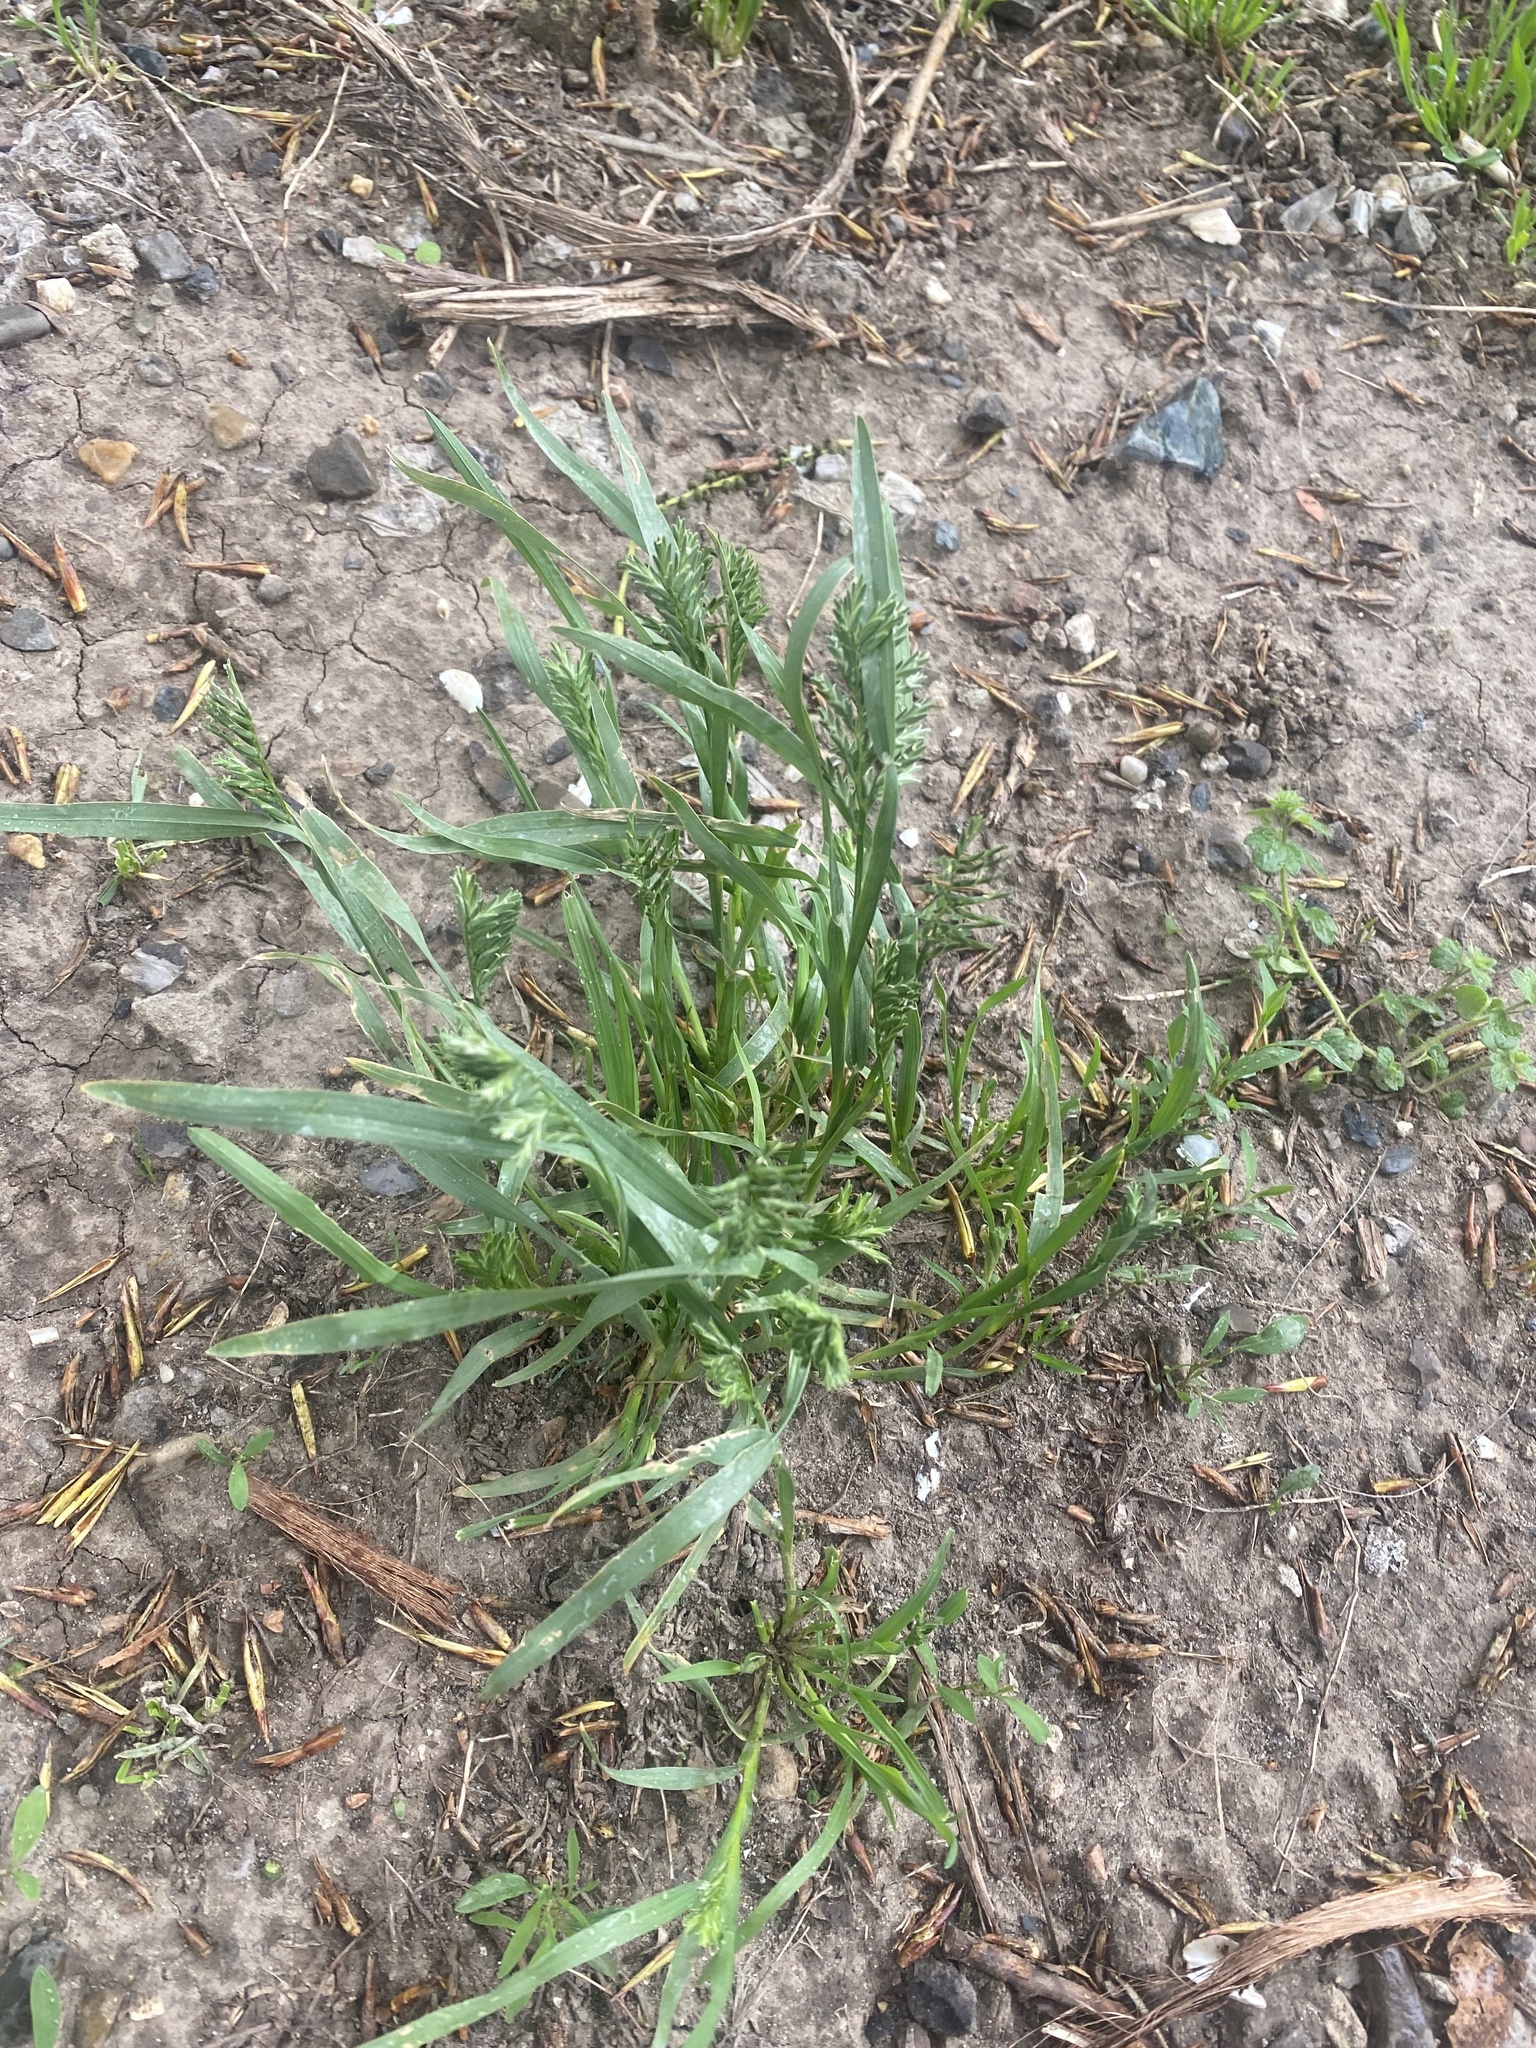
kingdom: Plantae
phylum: Tracheophyta
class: Liliopsida
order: Poales
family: Poaceae
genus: Sclerochloa
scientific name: Sclerochloa dura
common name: Common hardgrass
